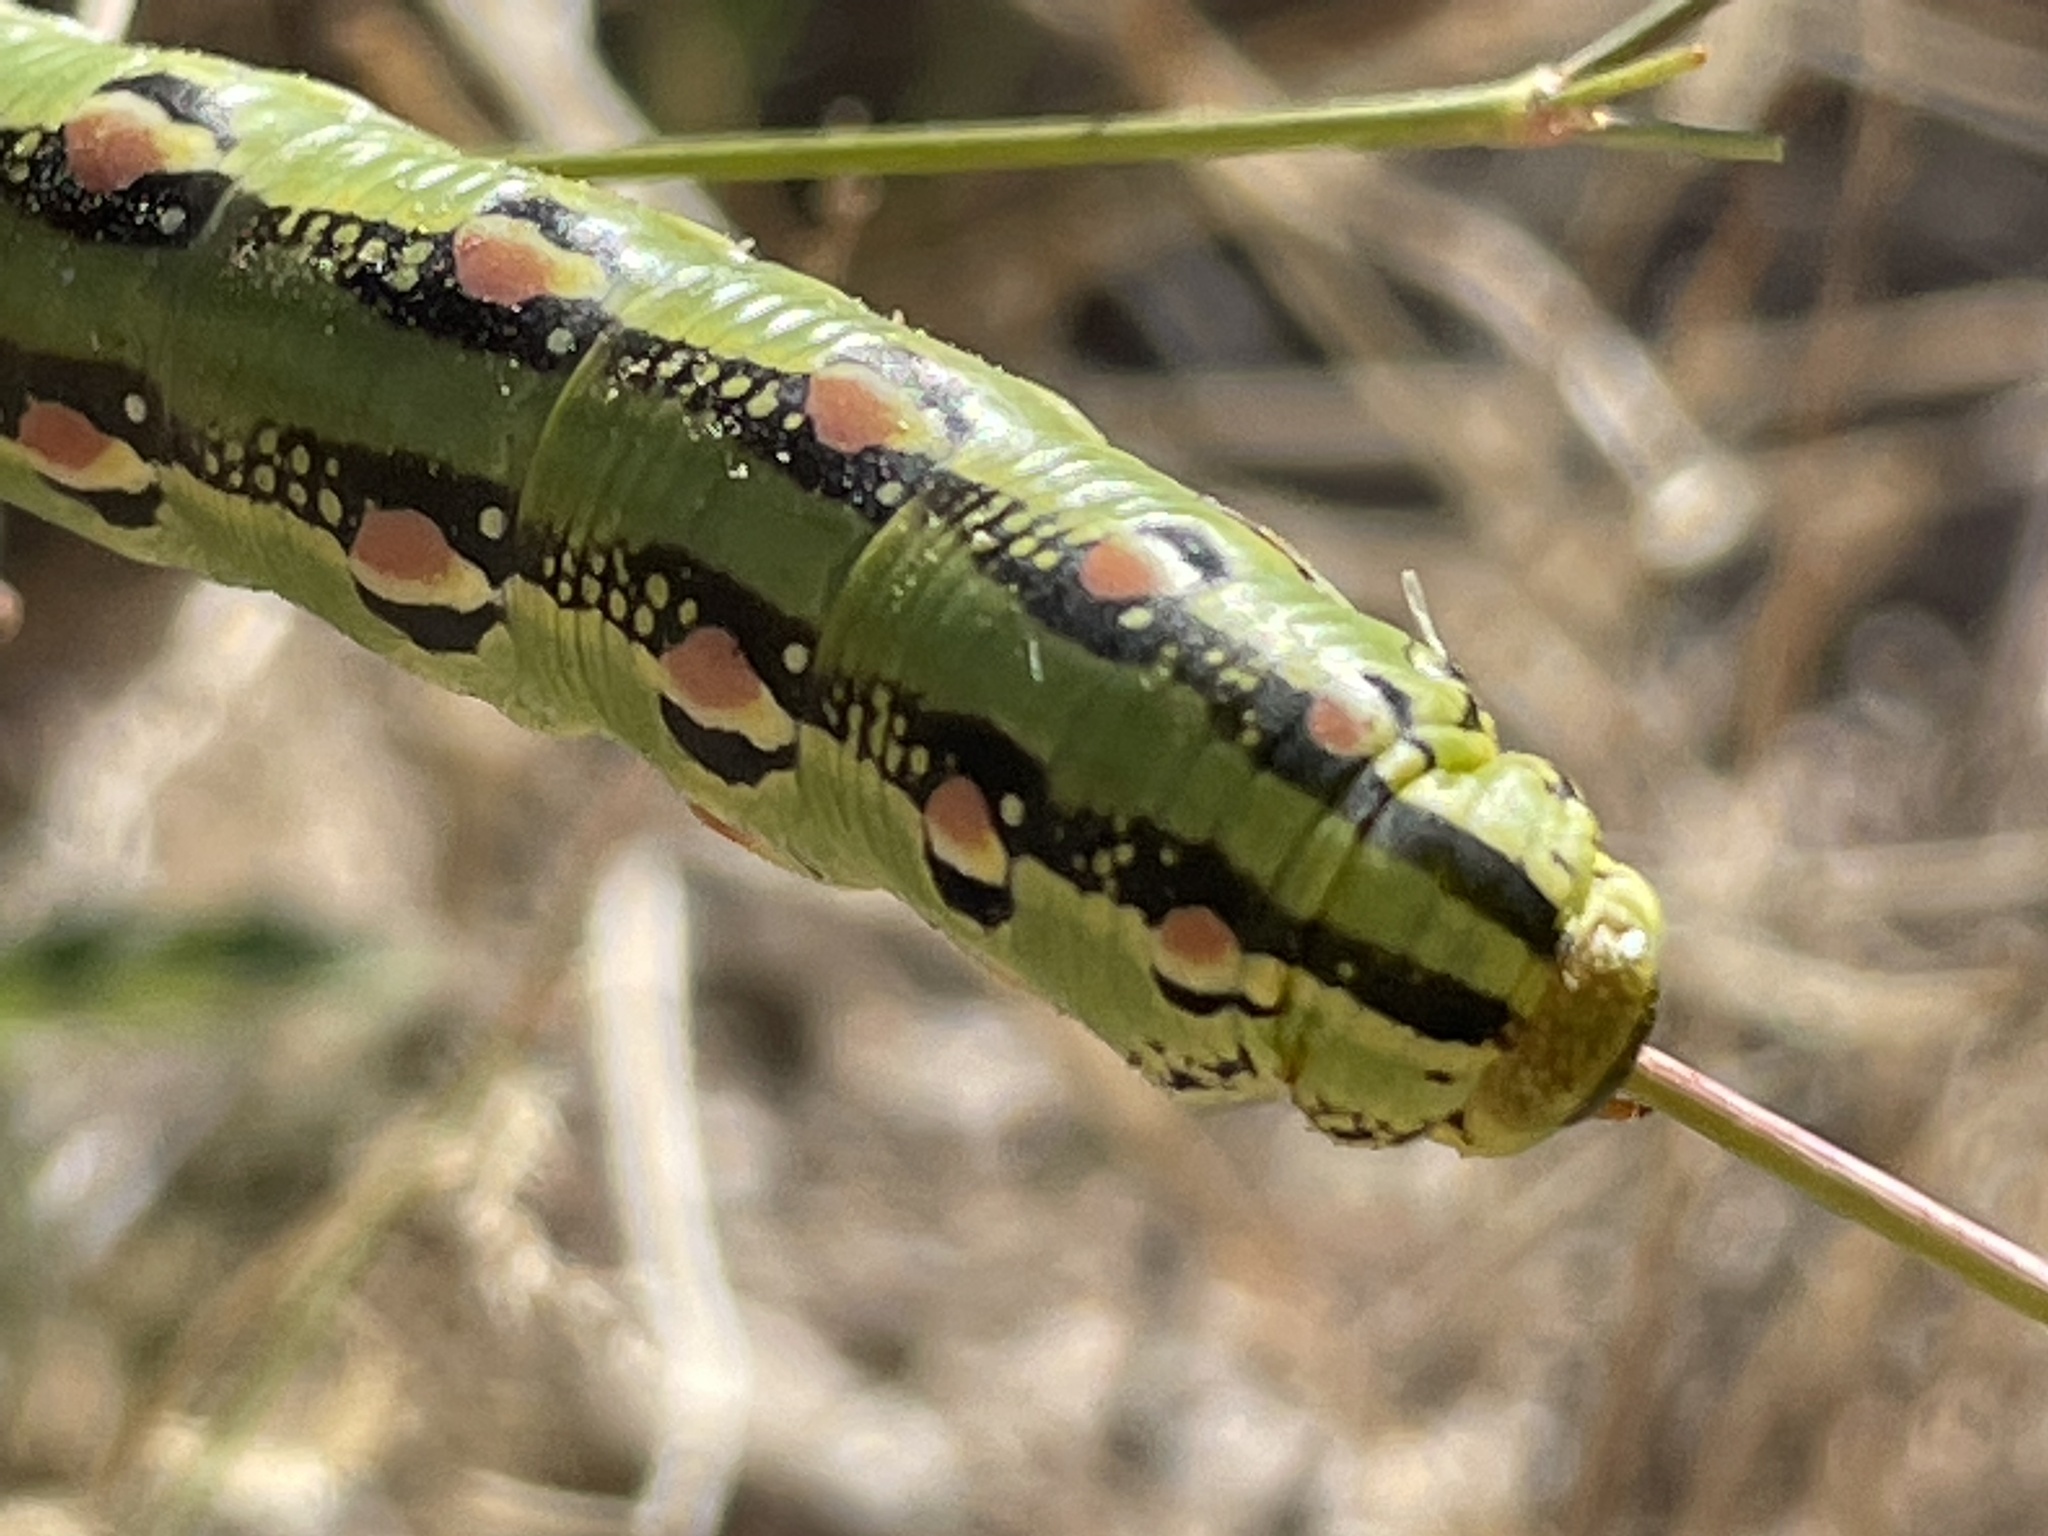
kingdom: Animalia
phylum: Arthropoda
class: Insecta
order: Lepidoptera
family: Sphingidae
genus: Hyles
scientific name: Hyles lineata
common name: White-lined sphinx
